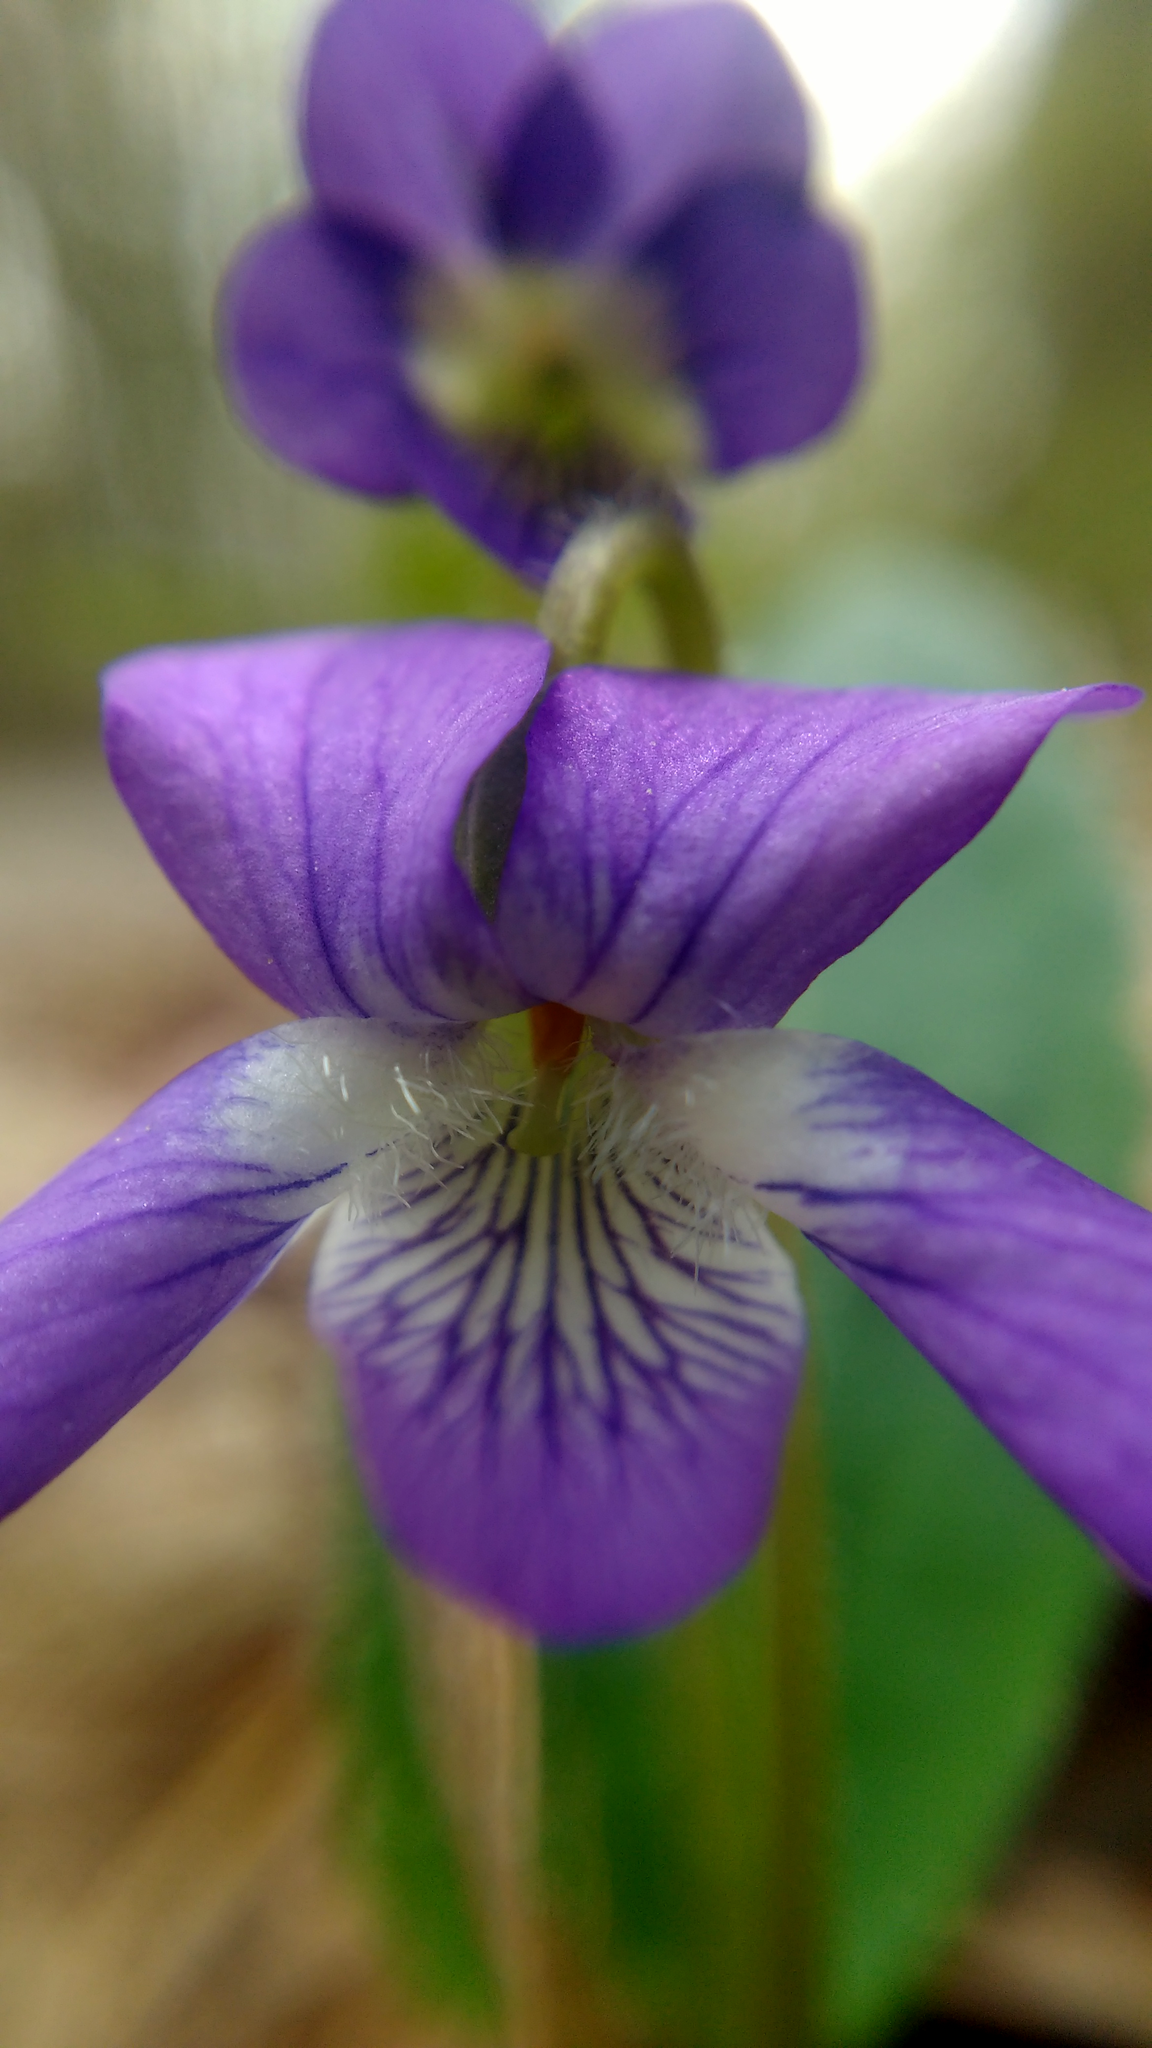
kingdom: Plantae
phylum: Tracheophyta
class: Magnoliopsida
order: Malpighiales
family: Violaceae
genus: Viola
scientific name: Viola sagittata
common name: Arrowhead violet
